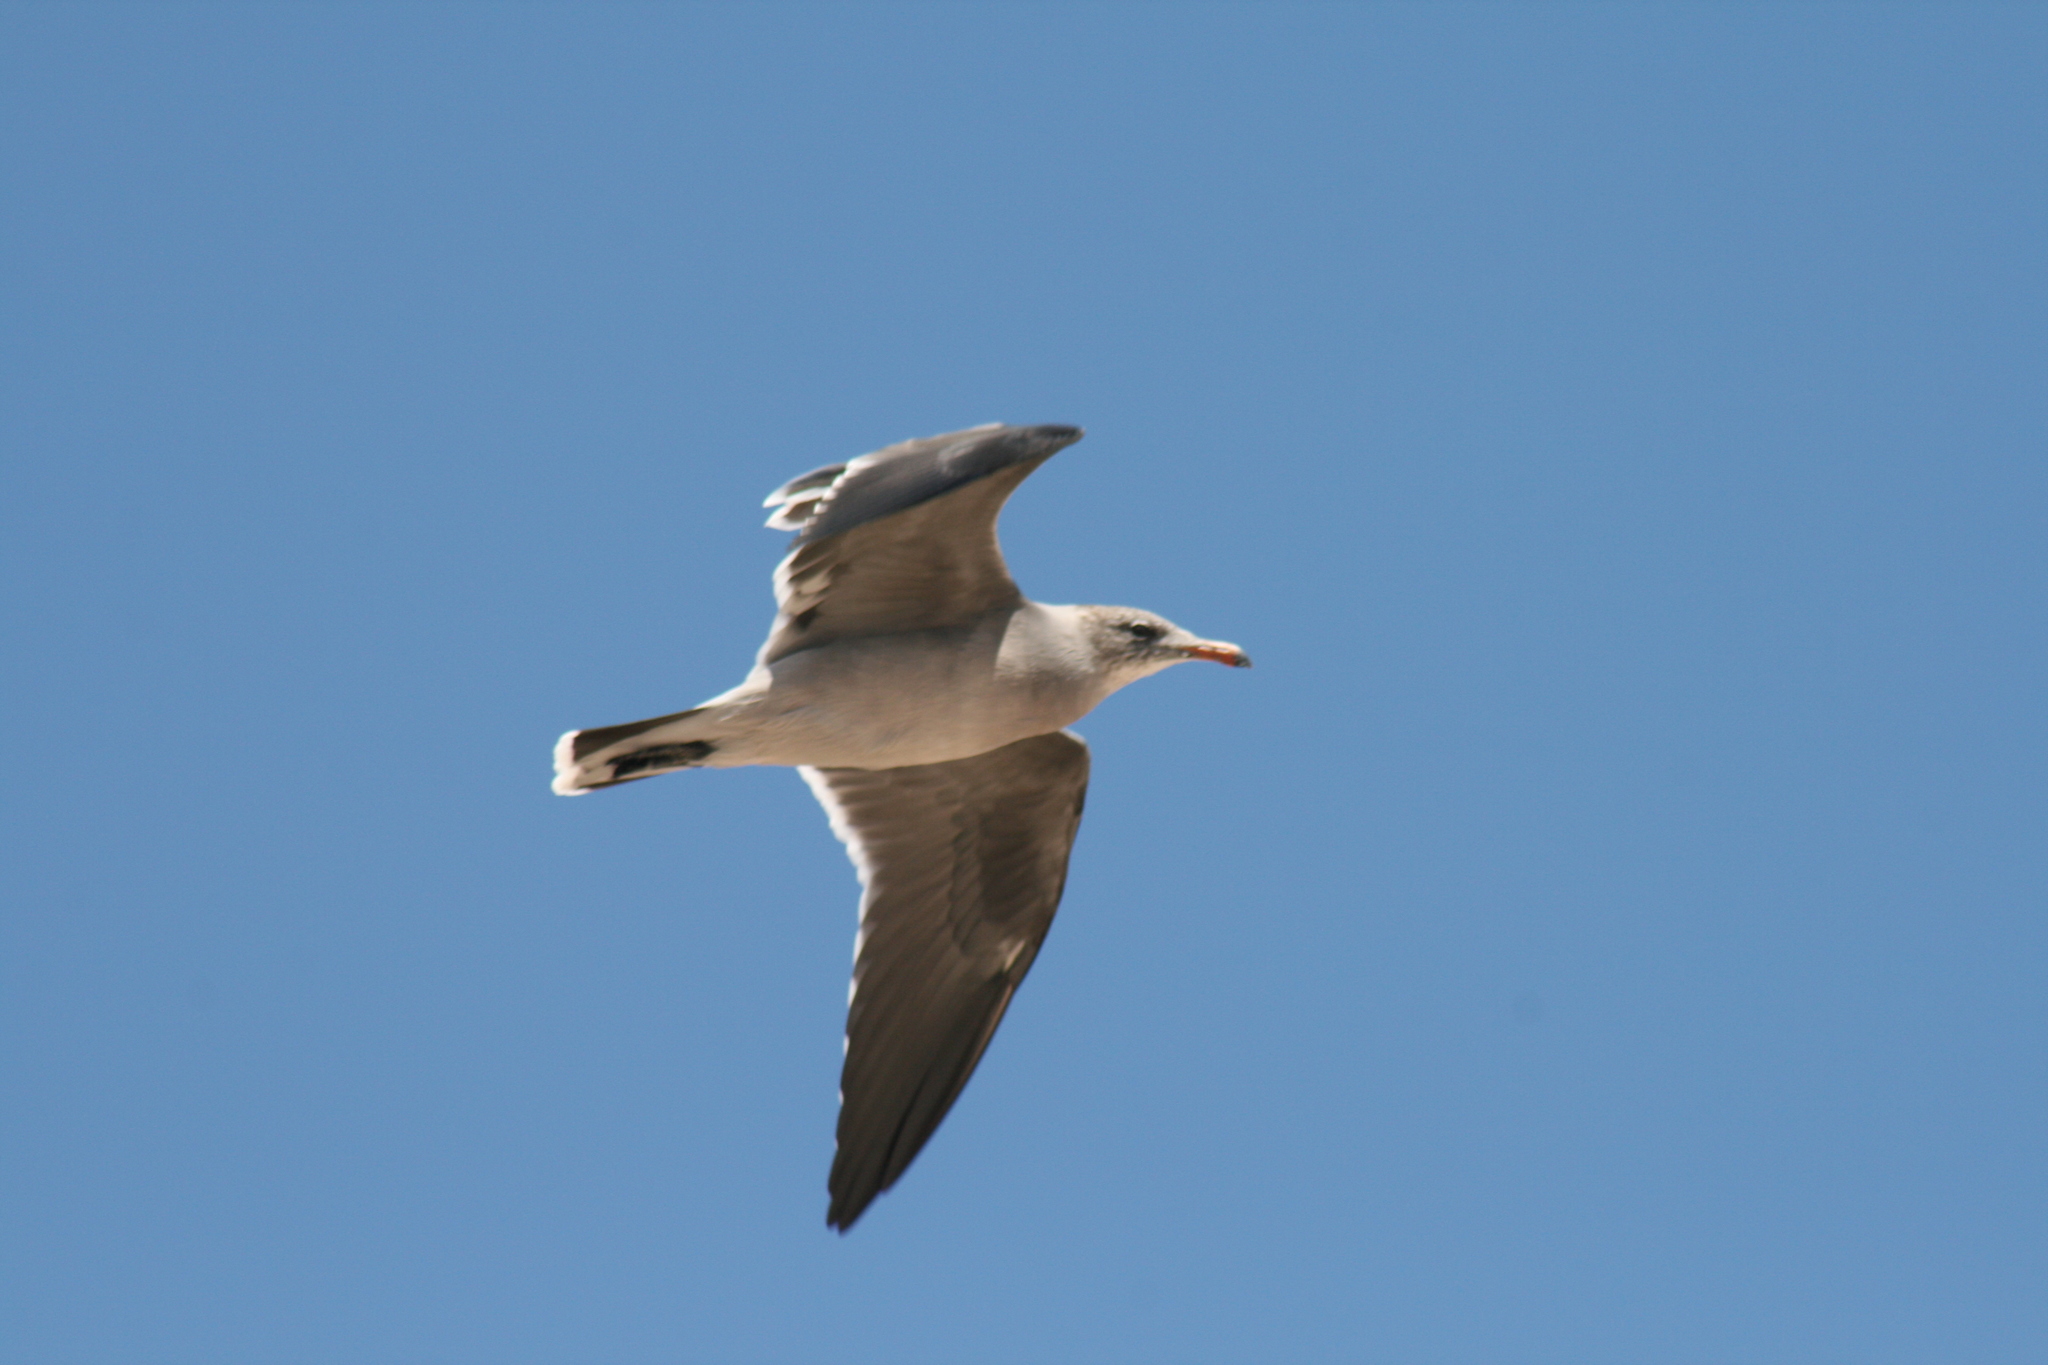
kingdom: Animalia
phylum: Chordata
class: Aves
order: Charadriiformes
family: Laridae
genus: Larus
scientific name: Larus heermanni
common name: Heermann's gull
